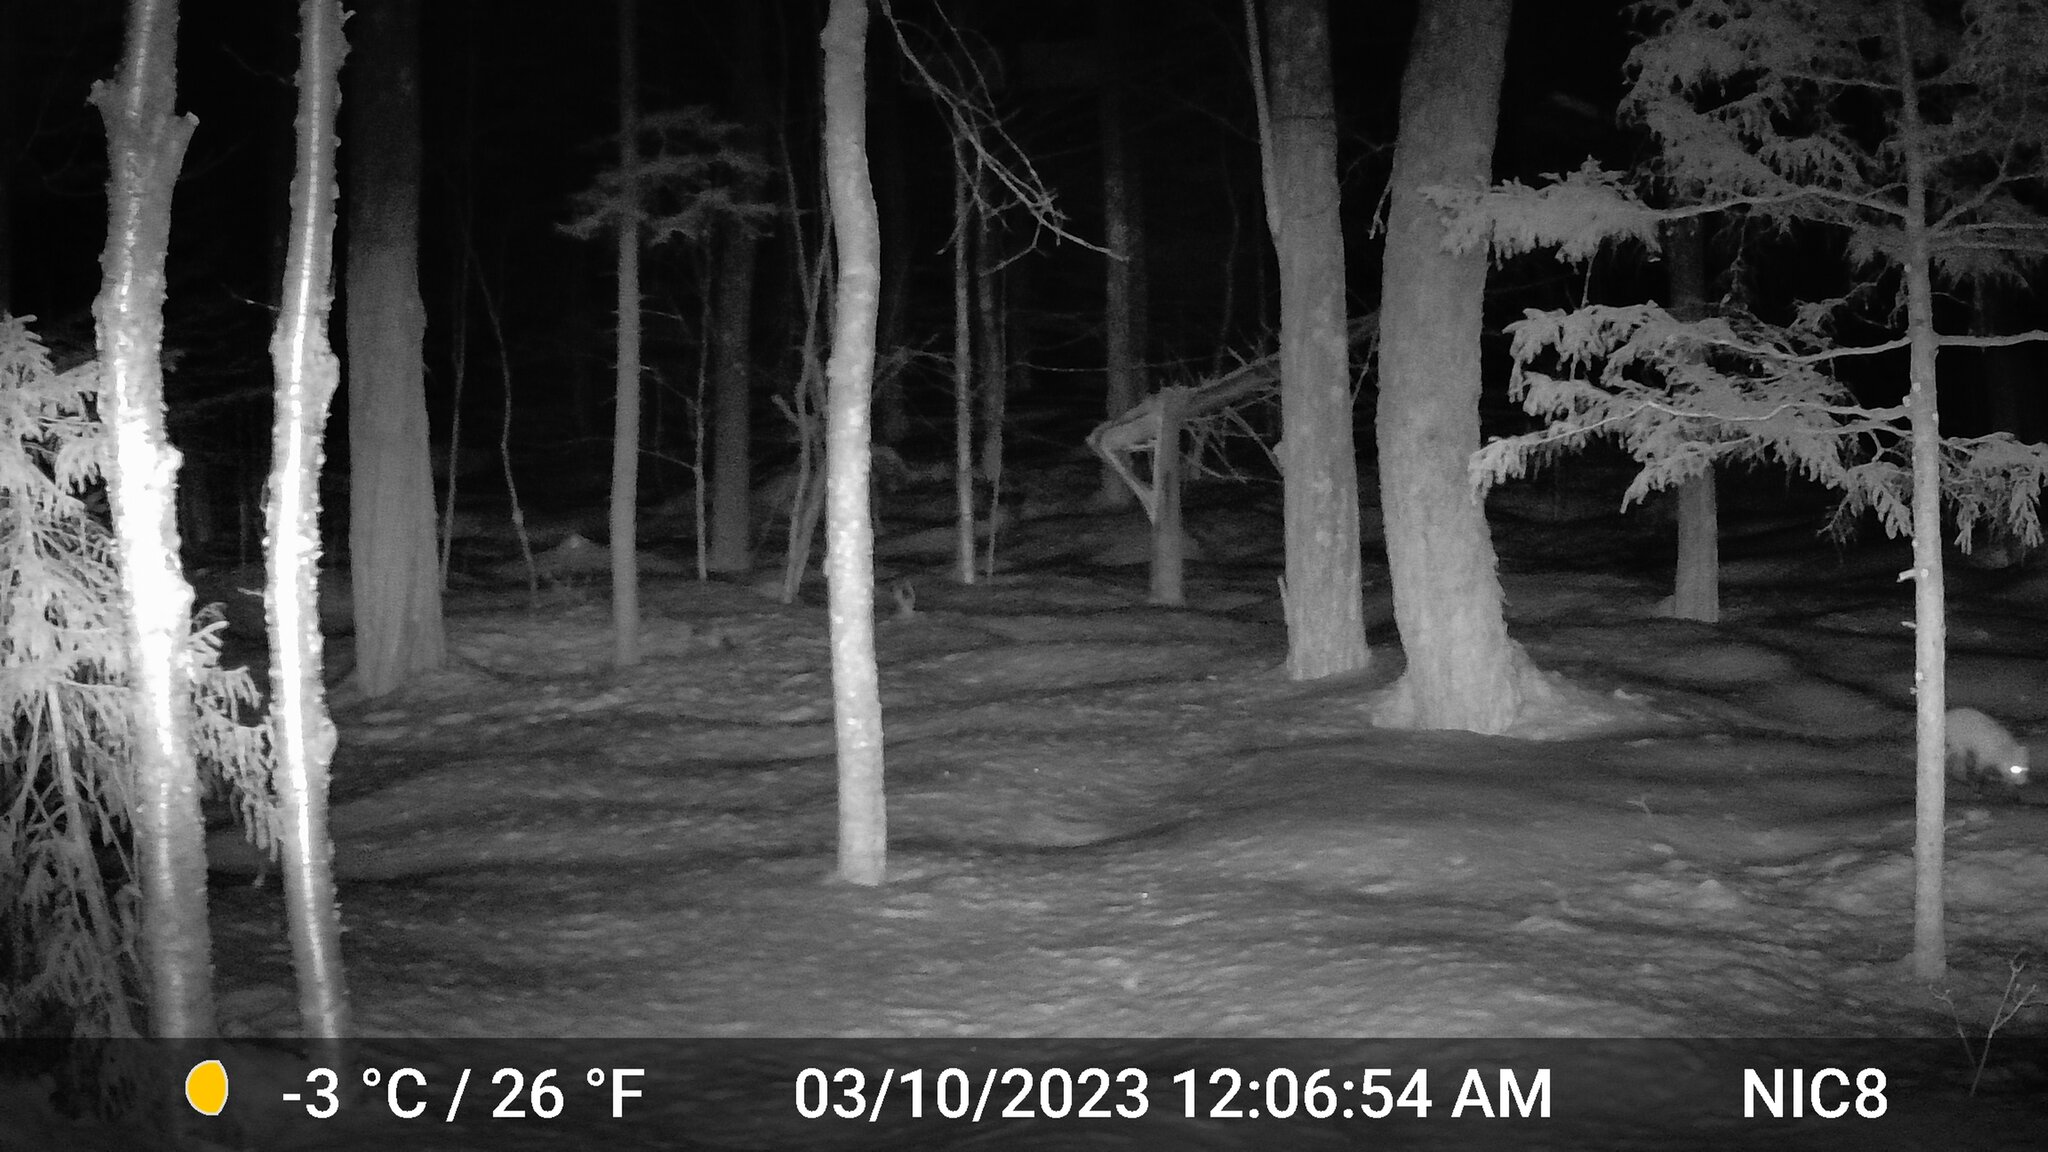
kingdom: Animalia
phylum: Chordata
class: Mammalia
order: Carnivora
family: Canidae
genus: Vulpes
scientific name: Vulpes vulpes
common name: Red fox
